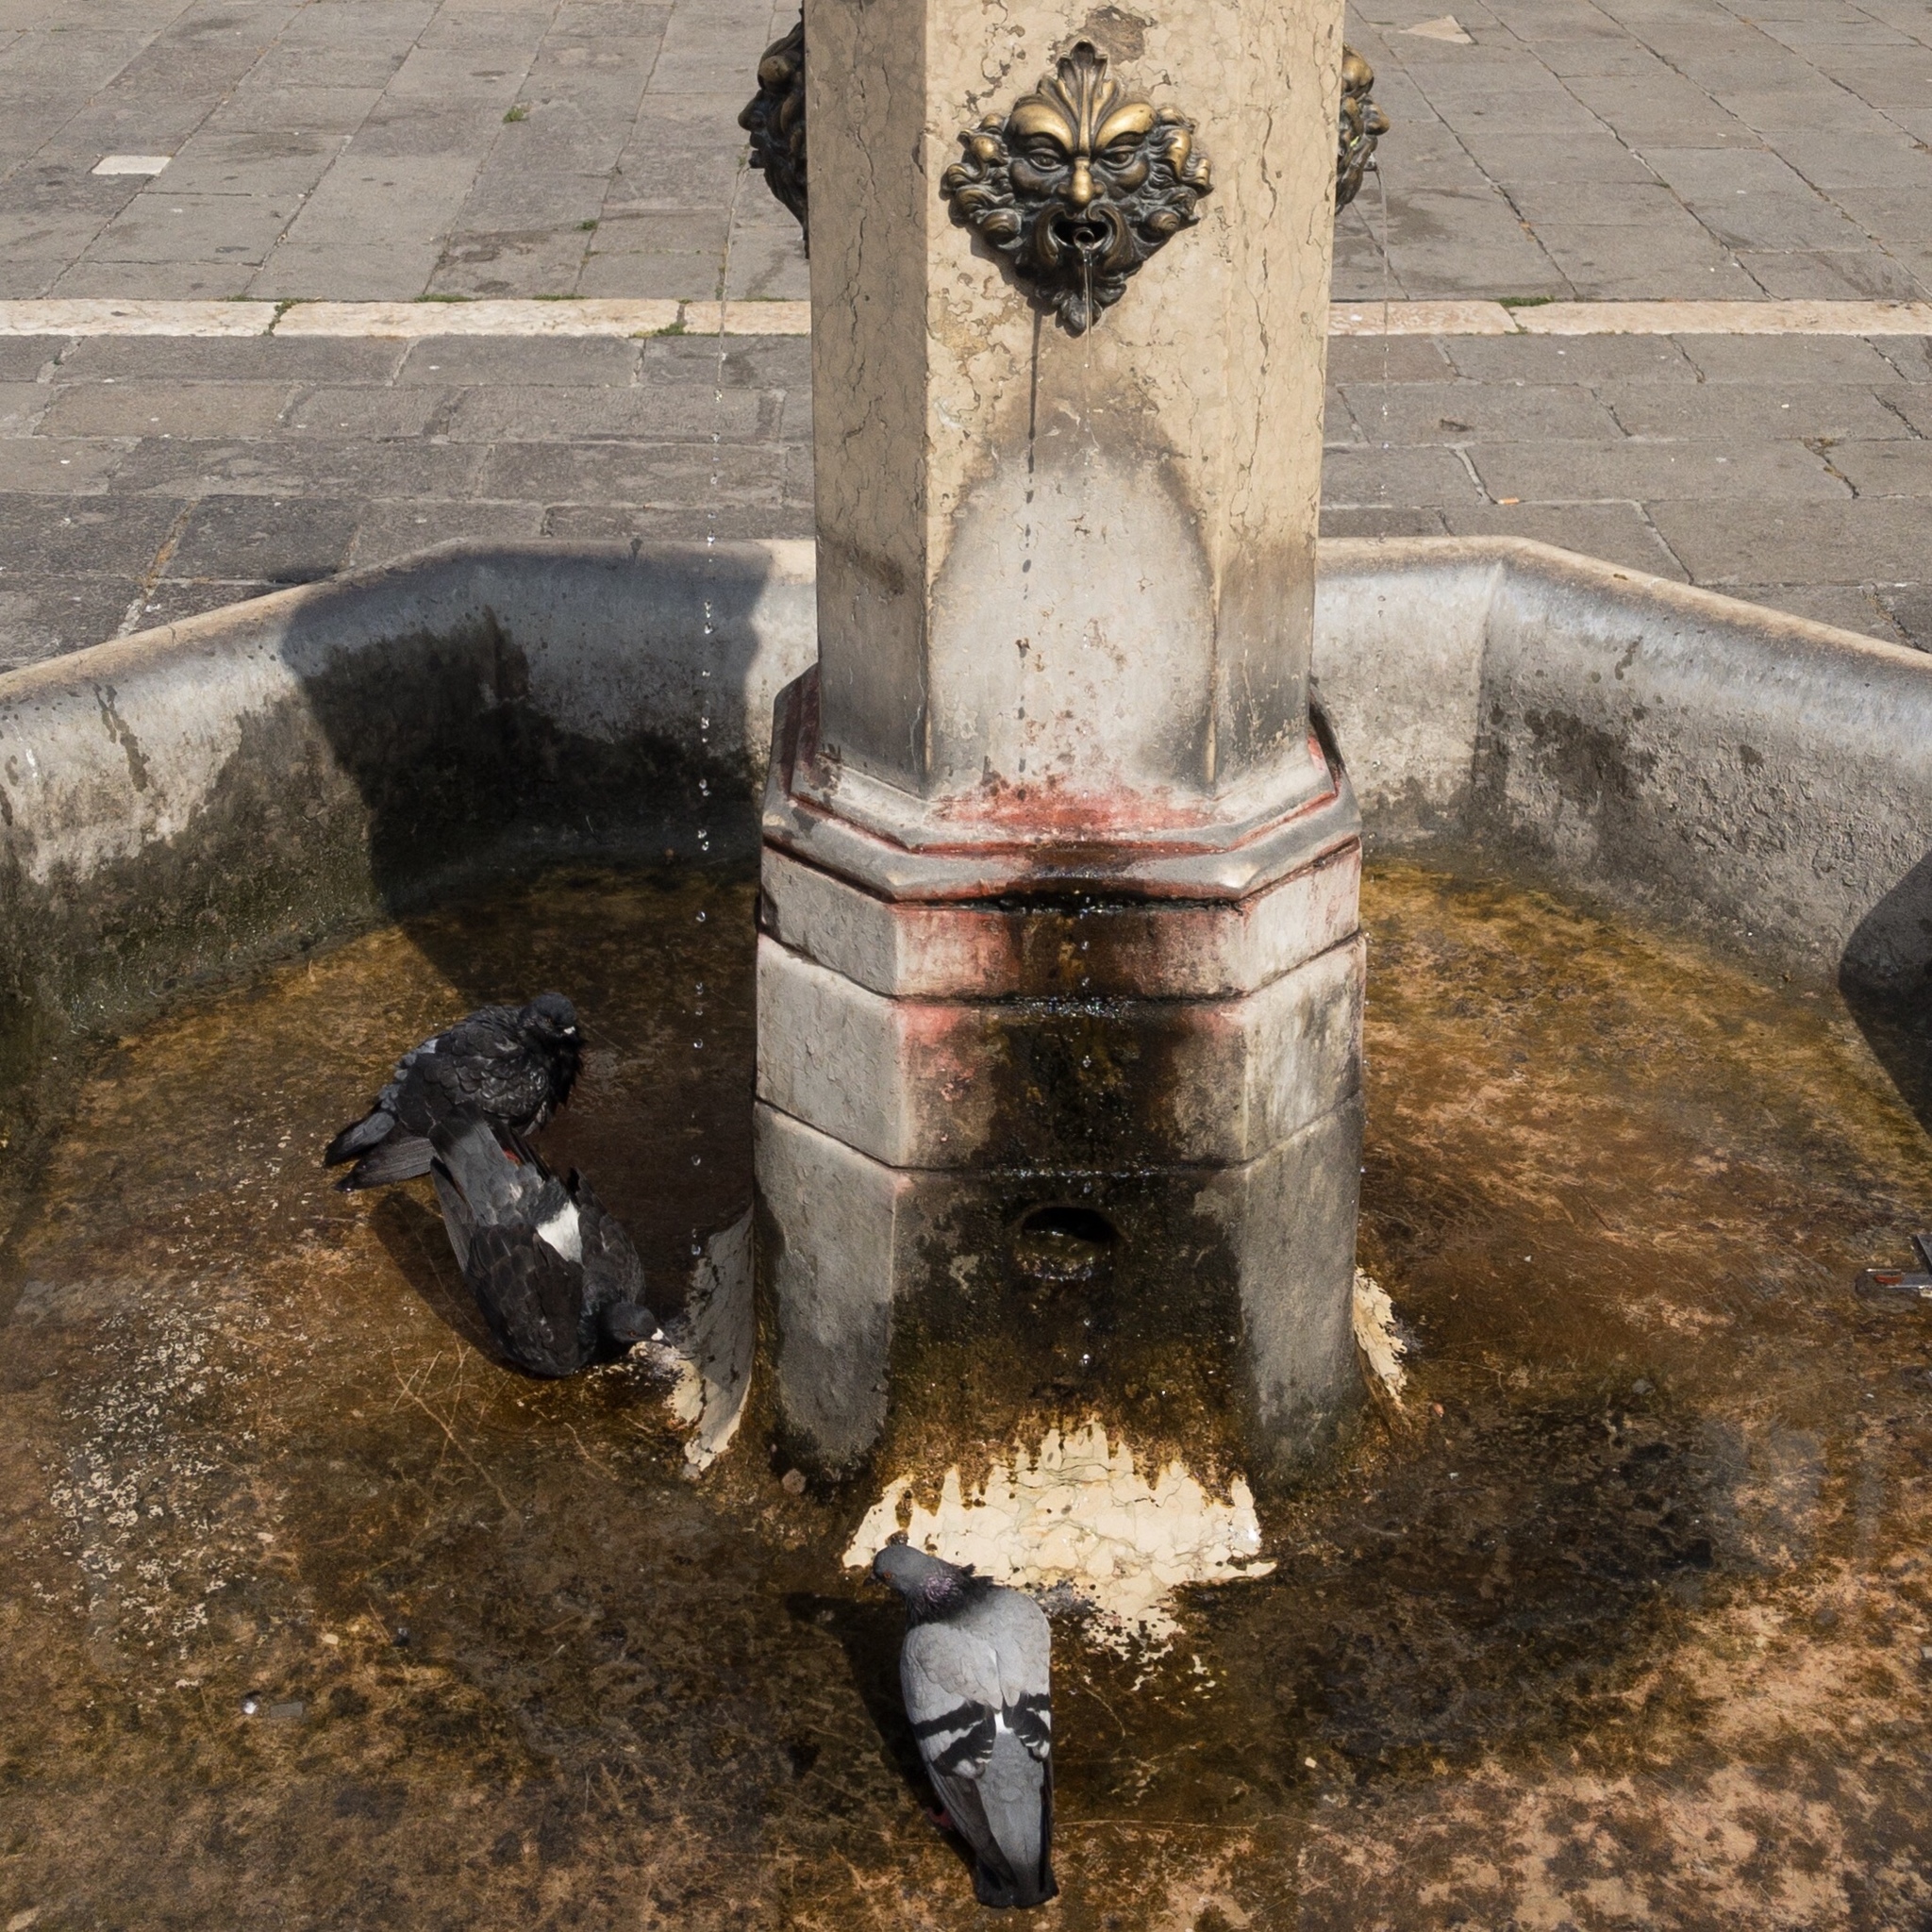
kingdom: Animalia
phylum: Chordata
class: Aves
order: Columbiformes
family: Columbidae
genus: Columba
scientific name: Columba livia
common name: Rock pigeon
